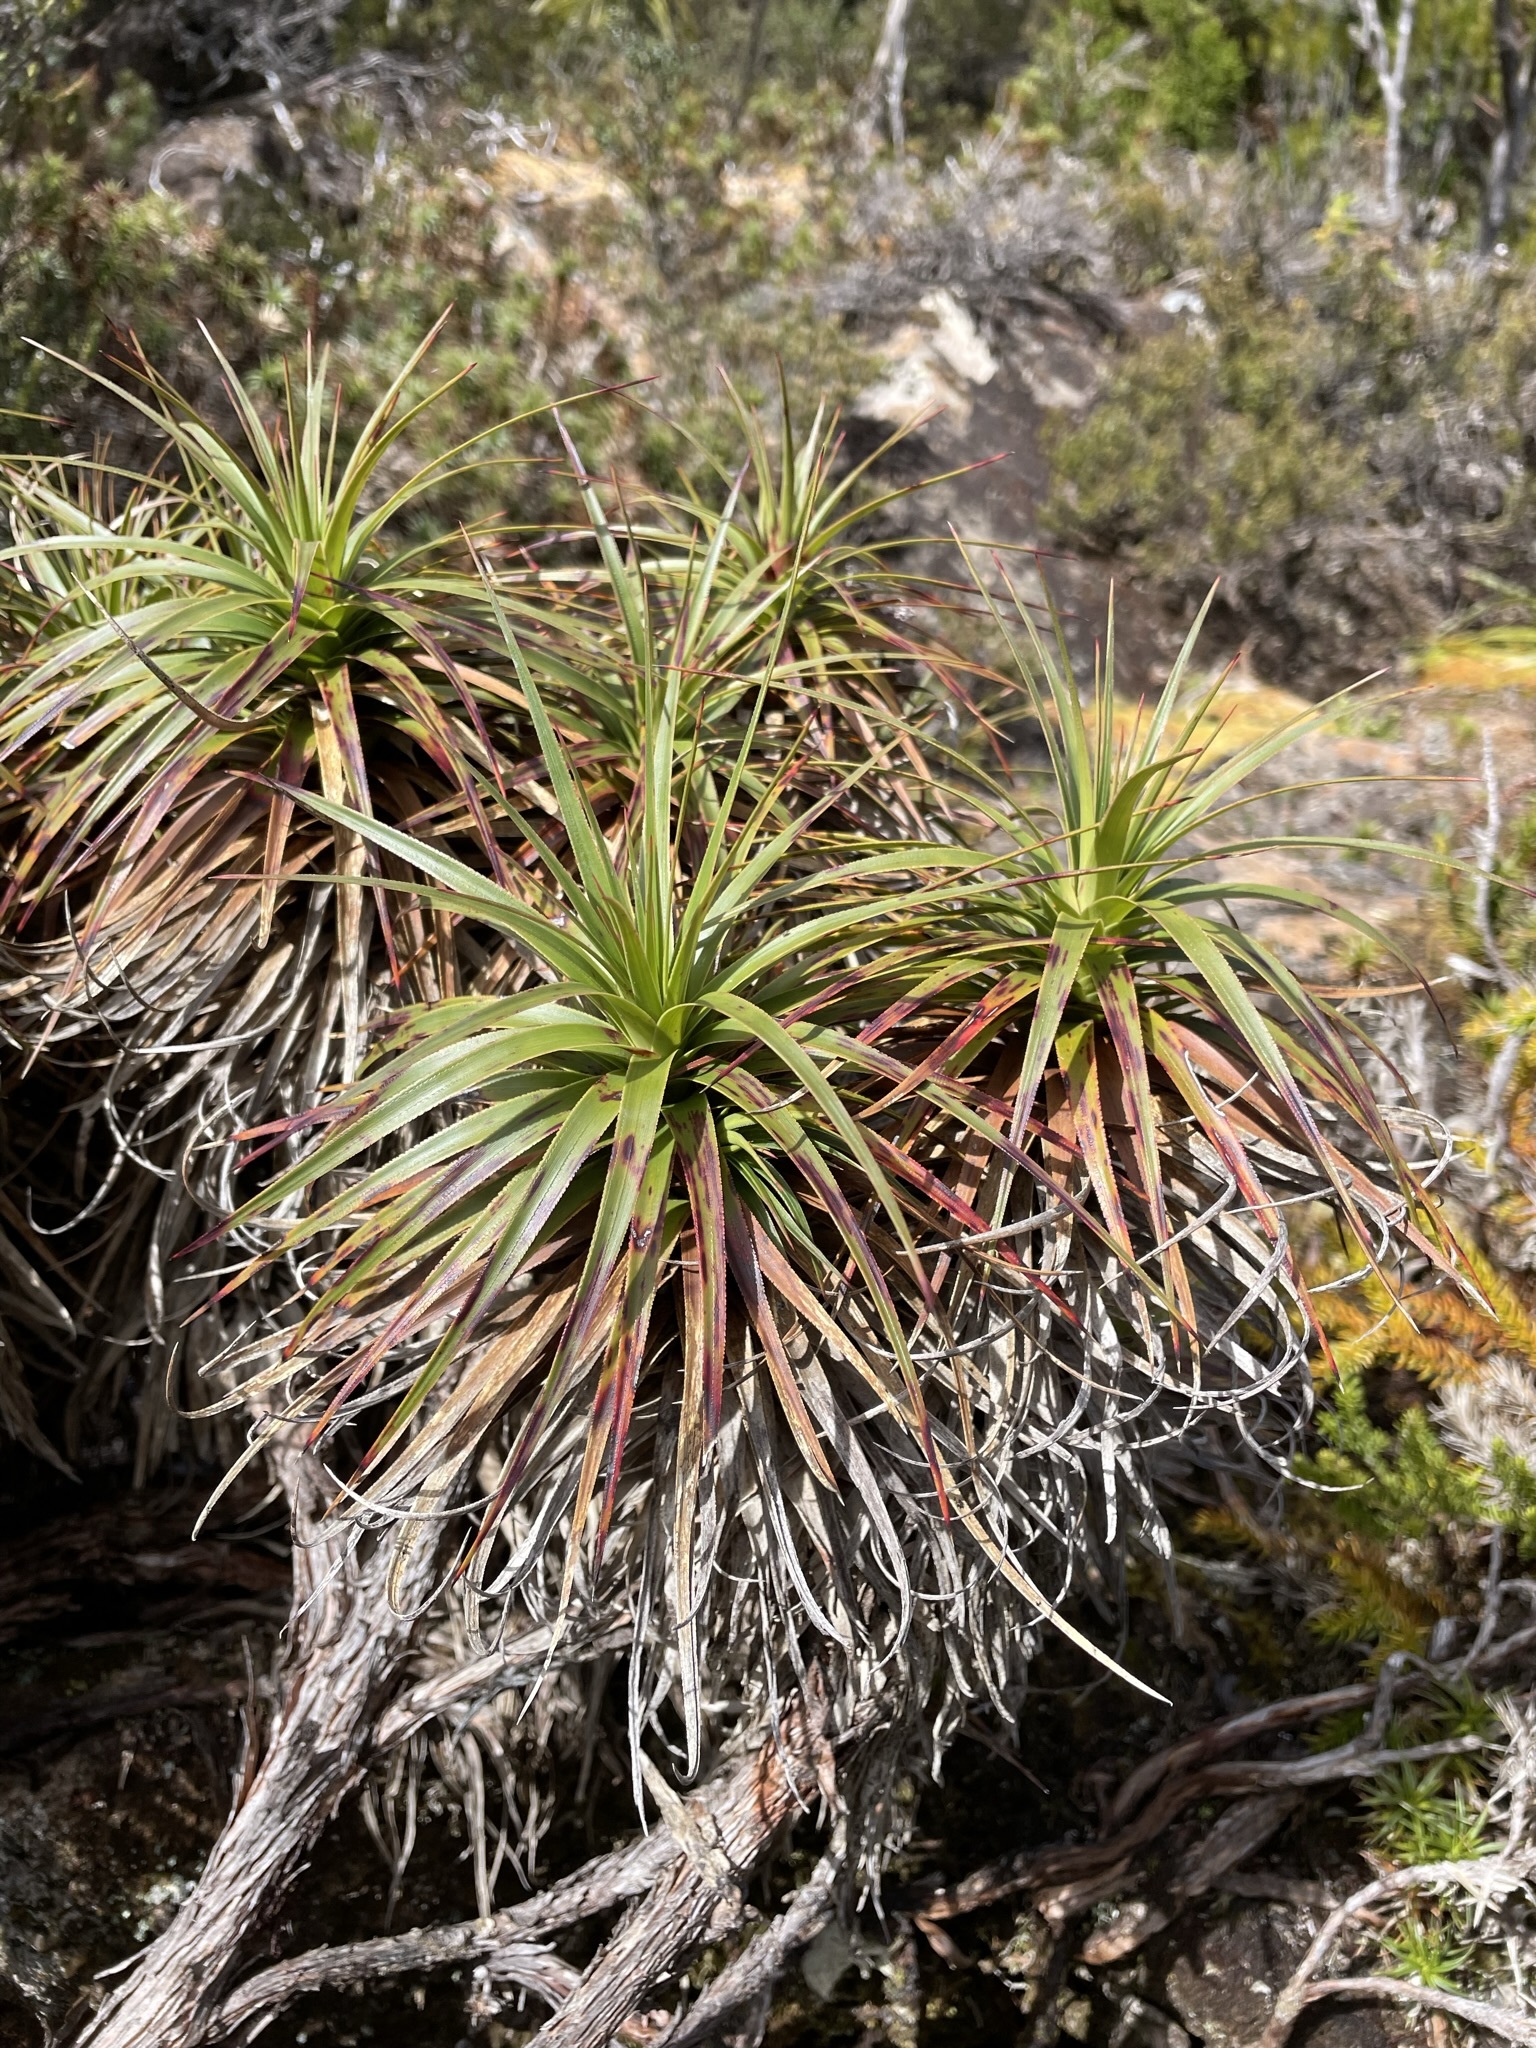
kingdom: Plantae
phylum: Tracheophyta
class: Magnoliopsida
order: Ericales
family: Ericaceae
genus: Richea
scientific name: Richea curtisiae
